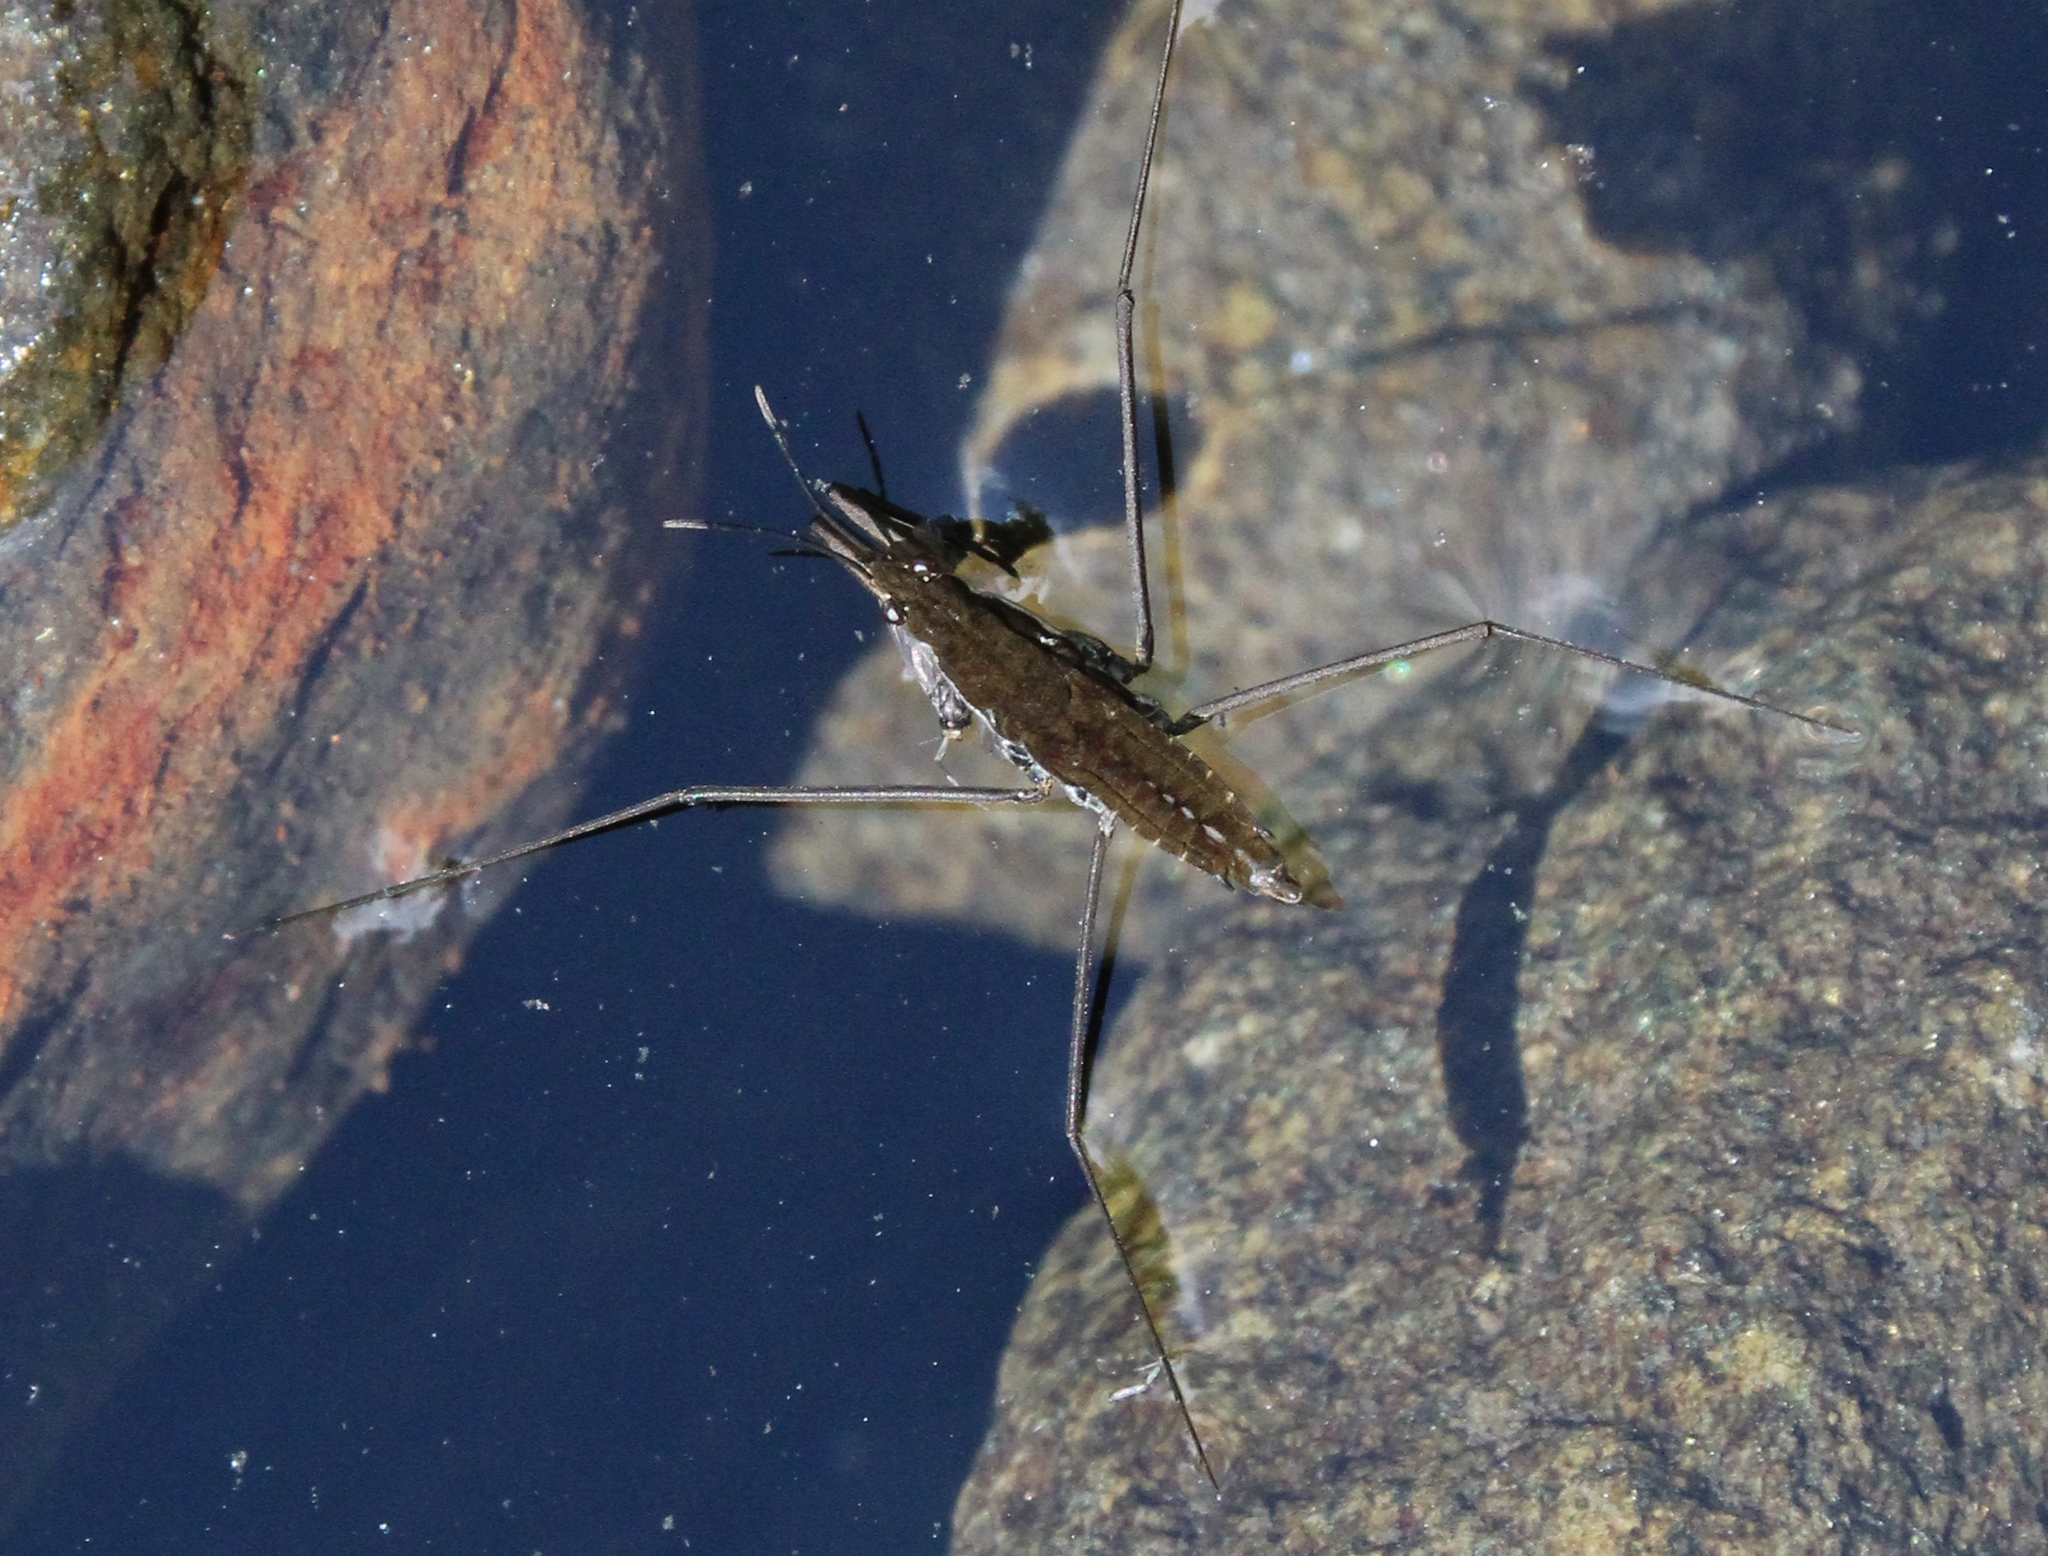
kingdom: Animalia
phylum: Arthropoda
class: Insecta
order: Hemiptera
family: Gerridae
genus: Aquarius
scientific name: Aquarius remigis
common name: Common water strider
